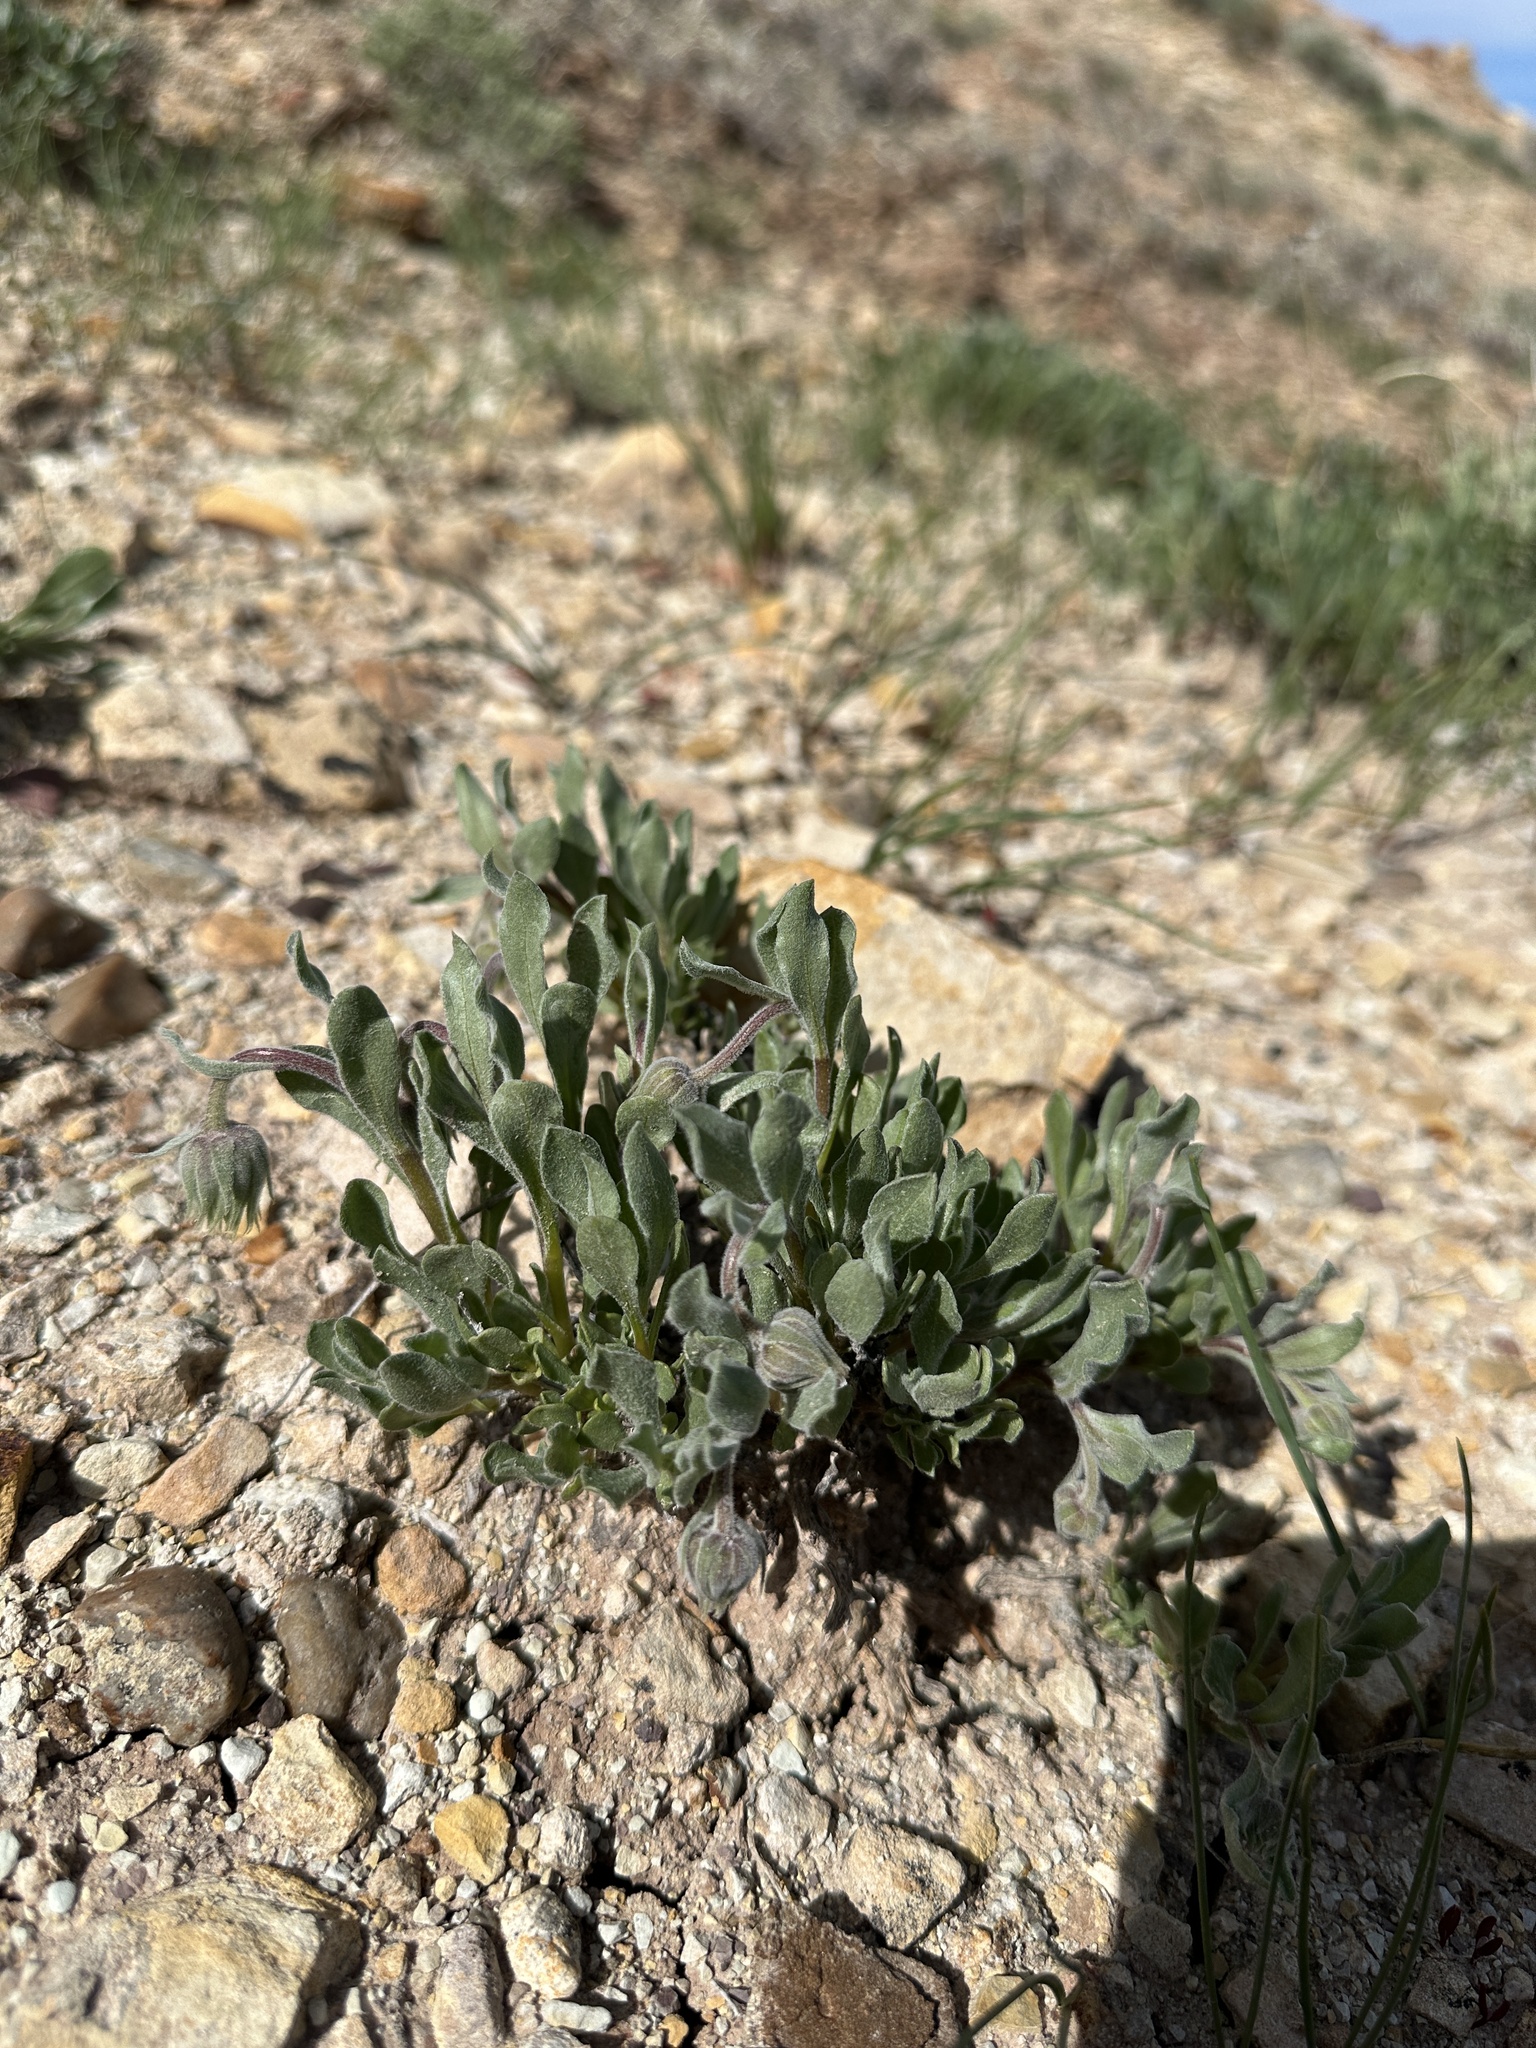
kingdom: Plantae
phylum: Tracheophyta
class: Magnoliopsida
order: Asterales
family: Asteraceae
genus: Xylorhiza
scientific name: Xylorhiza venusta
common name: Cisco woody-aster
